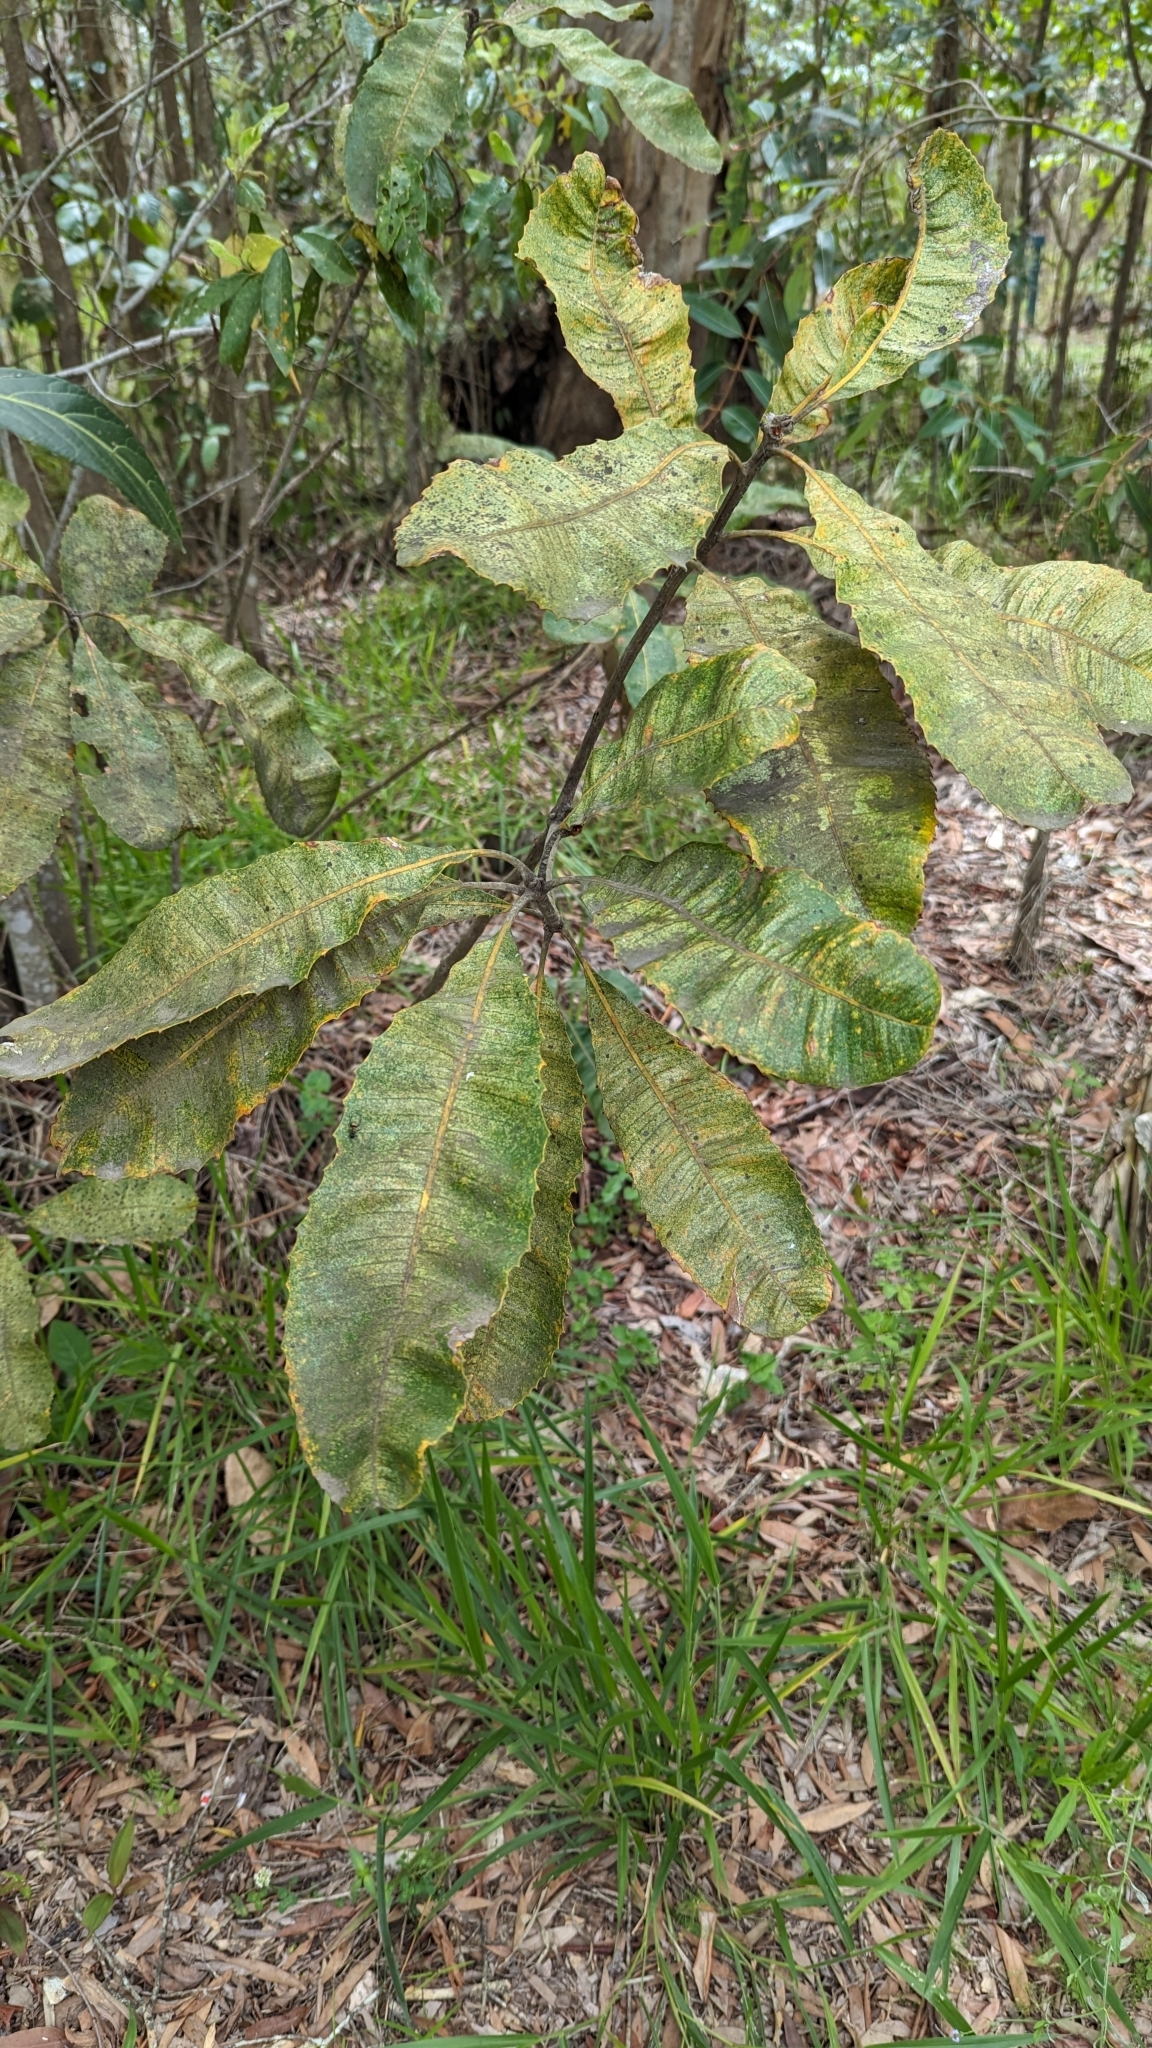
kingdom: Plantae
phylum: Tracheophyta
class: Magnoliopsida
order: Proteales
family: Proteaceae
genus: Banksia
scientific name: Banksia robur
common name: Broadleaf banksia
